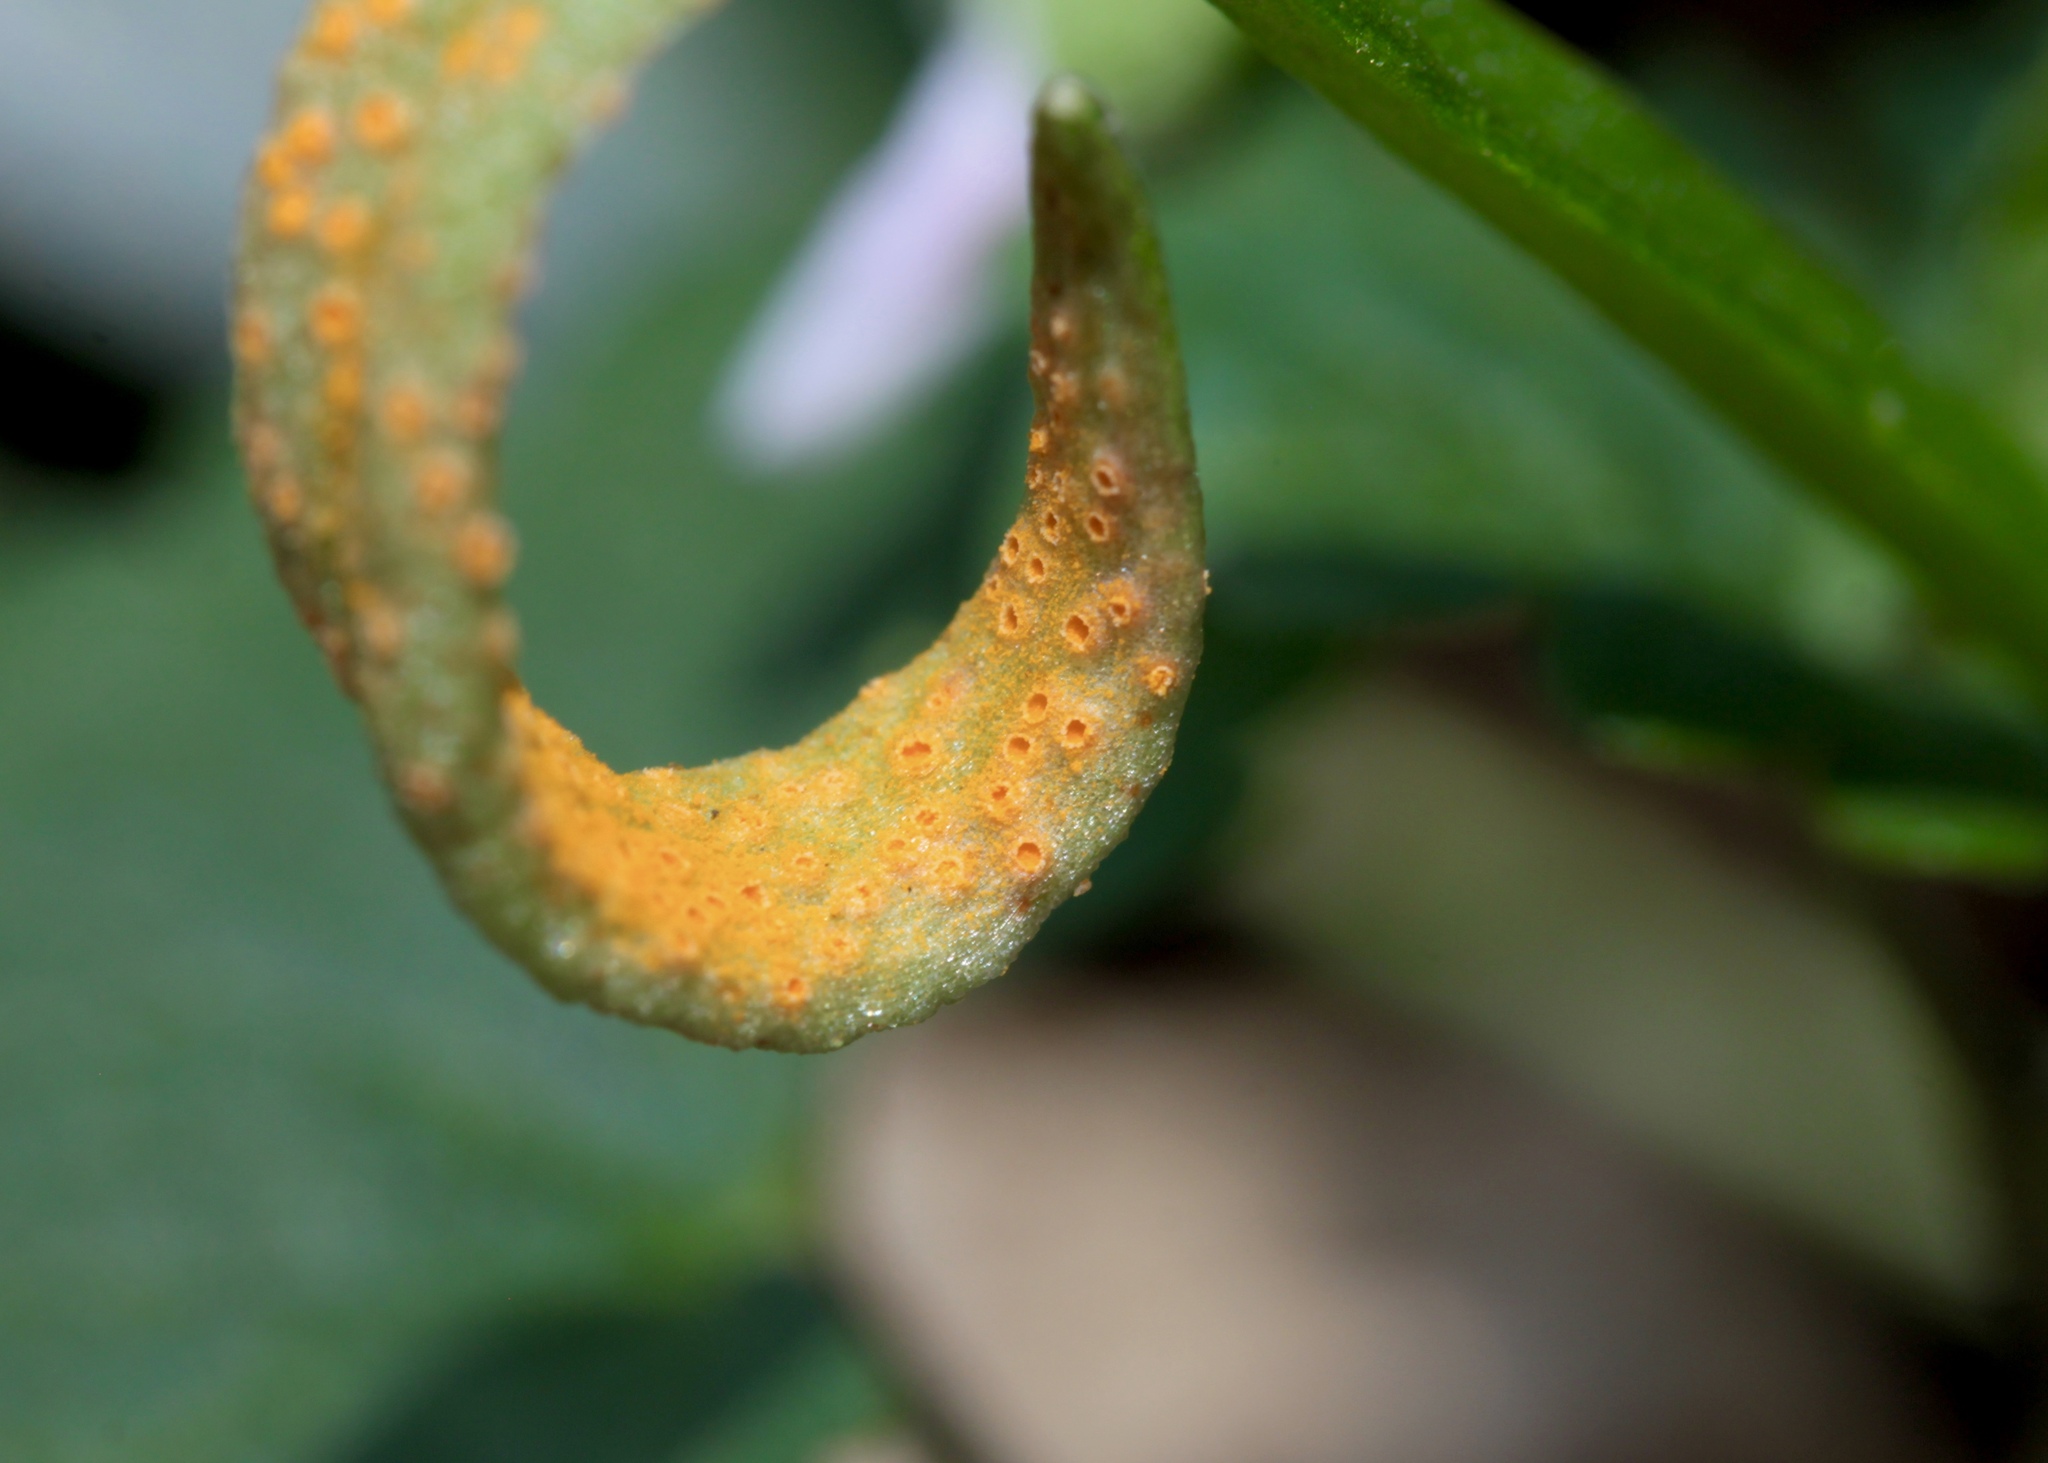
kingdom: Fungi
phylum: Basidiomycota
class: Pucciniomycetes
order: Pucciniales
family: Pucciniaceae
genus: Puccinia
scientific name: Puccinia mariae-wilsoniae
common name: Spring beauty rust
